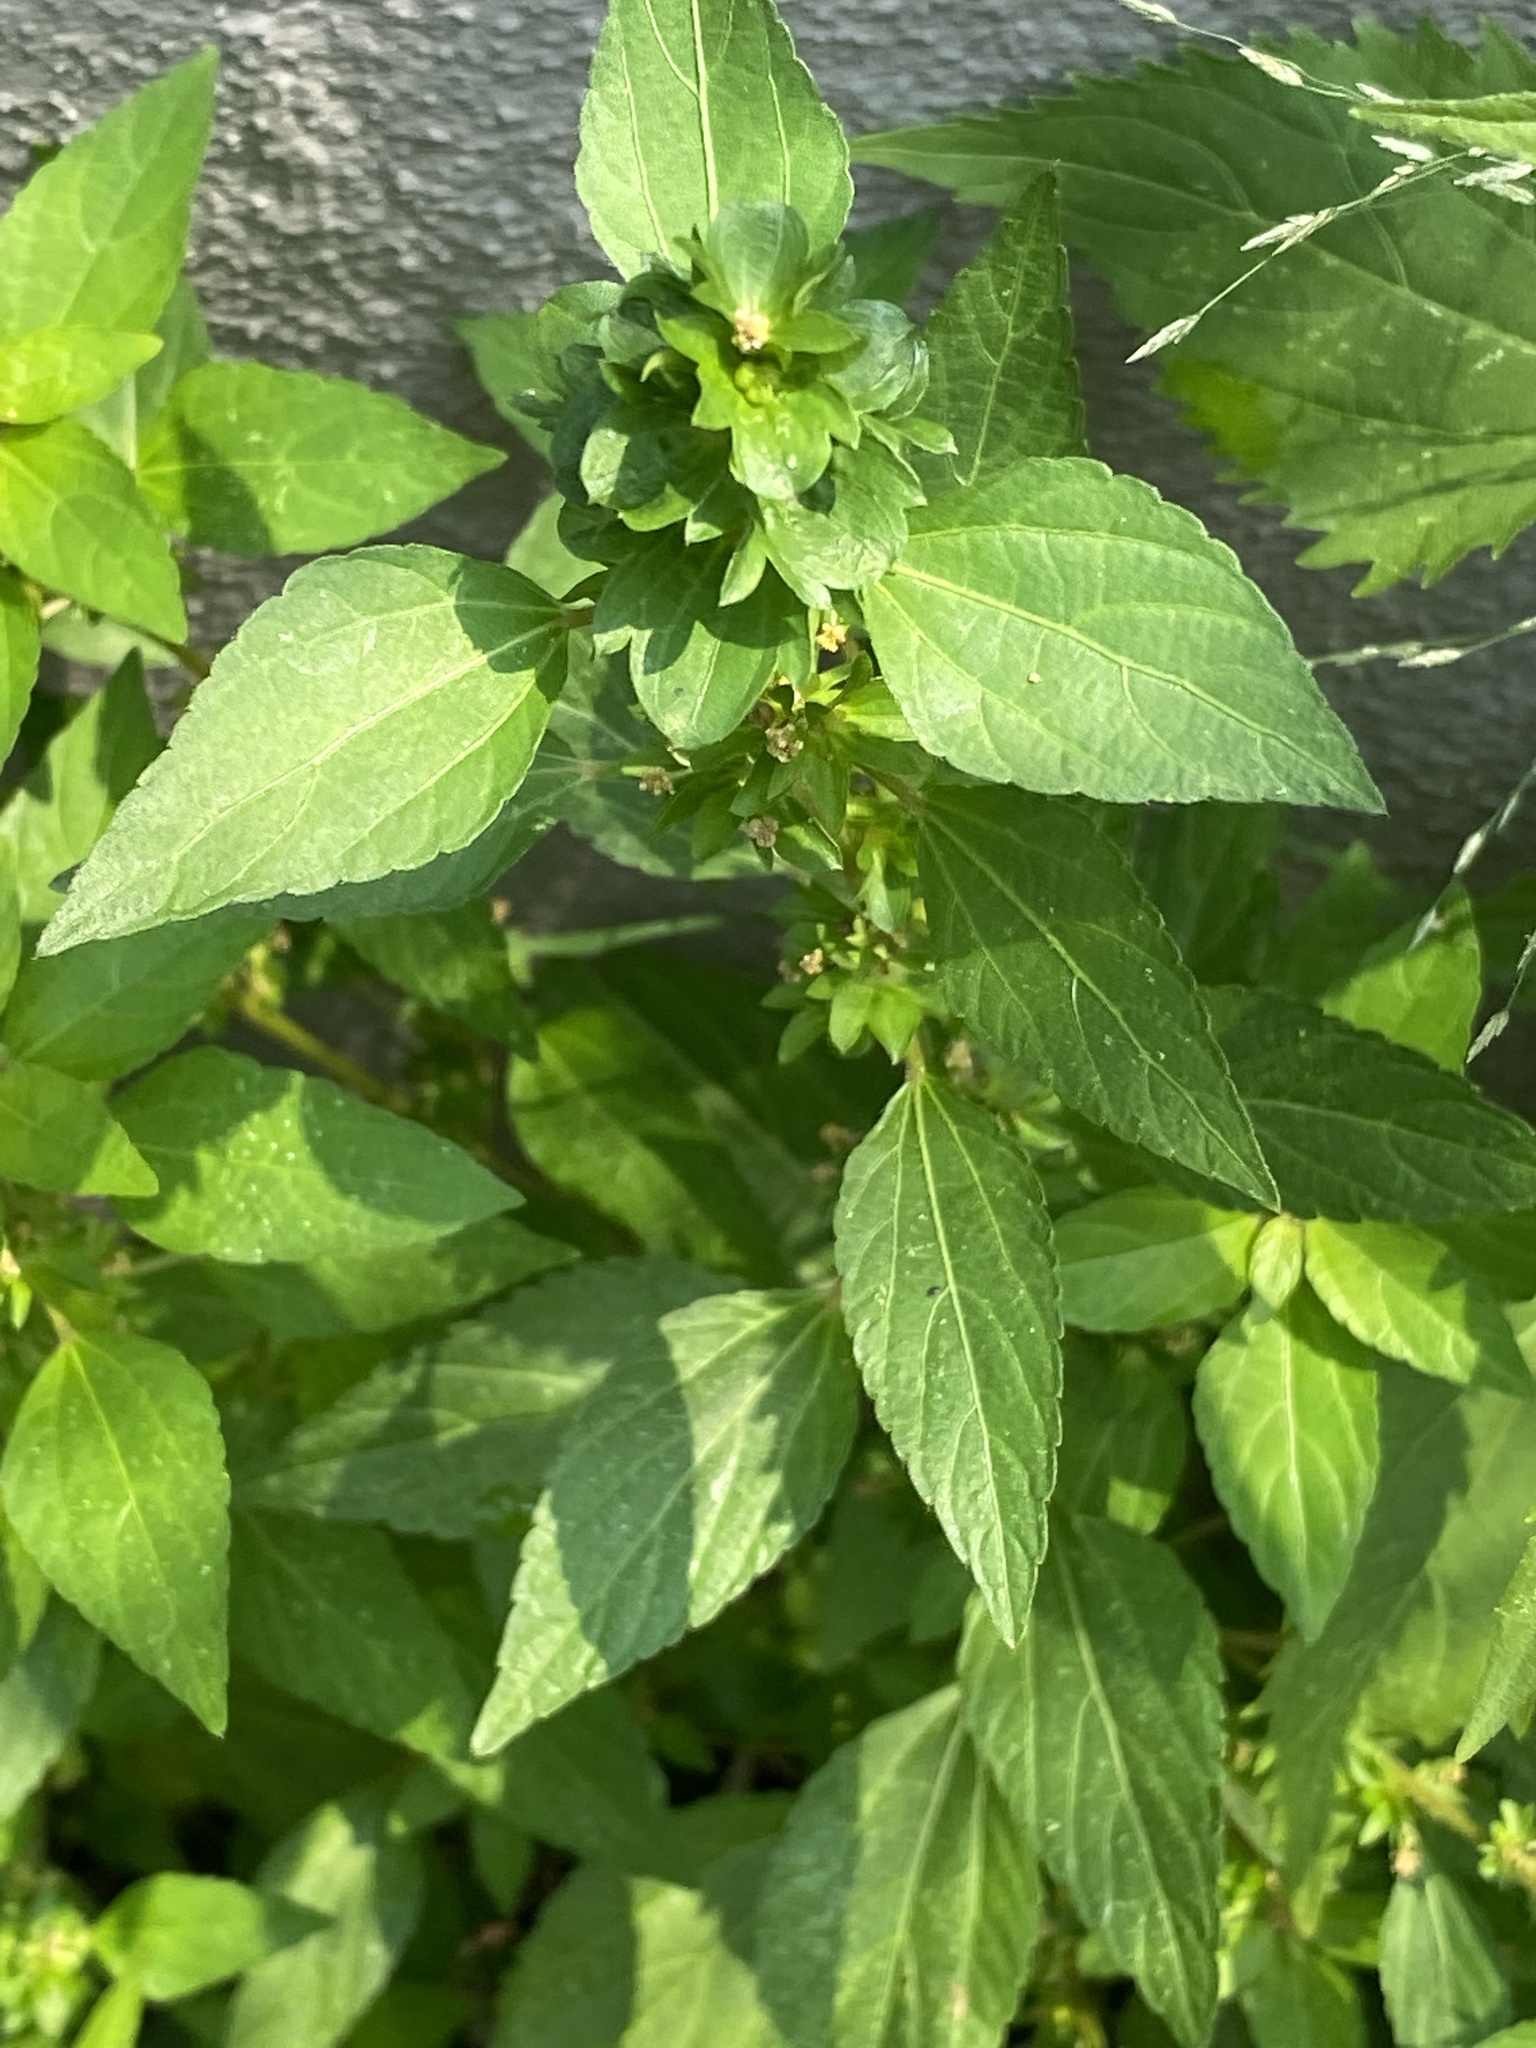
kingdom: Plantae
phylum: Tracheophyta
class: Magnoliopsida
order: Malpighiales
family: Euphorbiaceae
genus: Acalypha
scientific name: Acalypha rhomboidea
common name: Rhombic copperleaf
